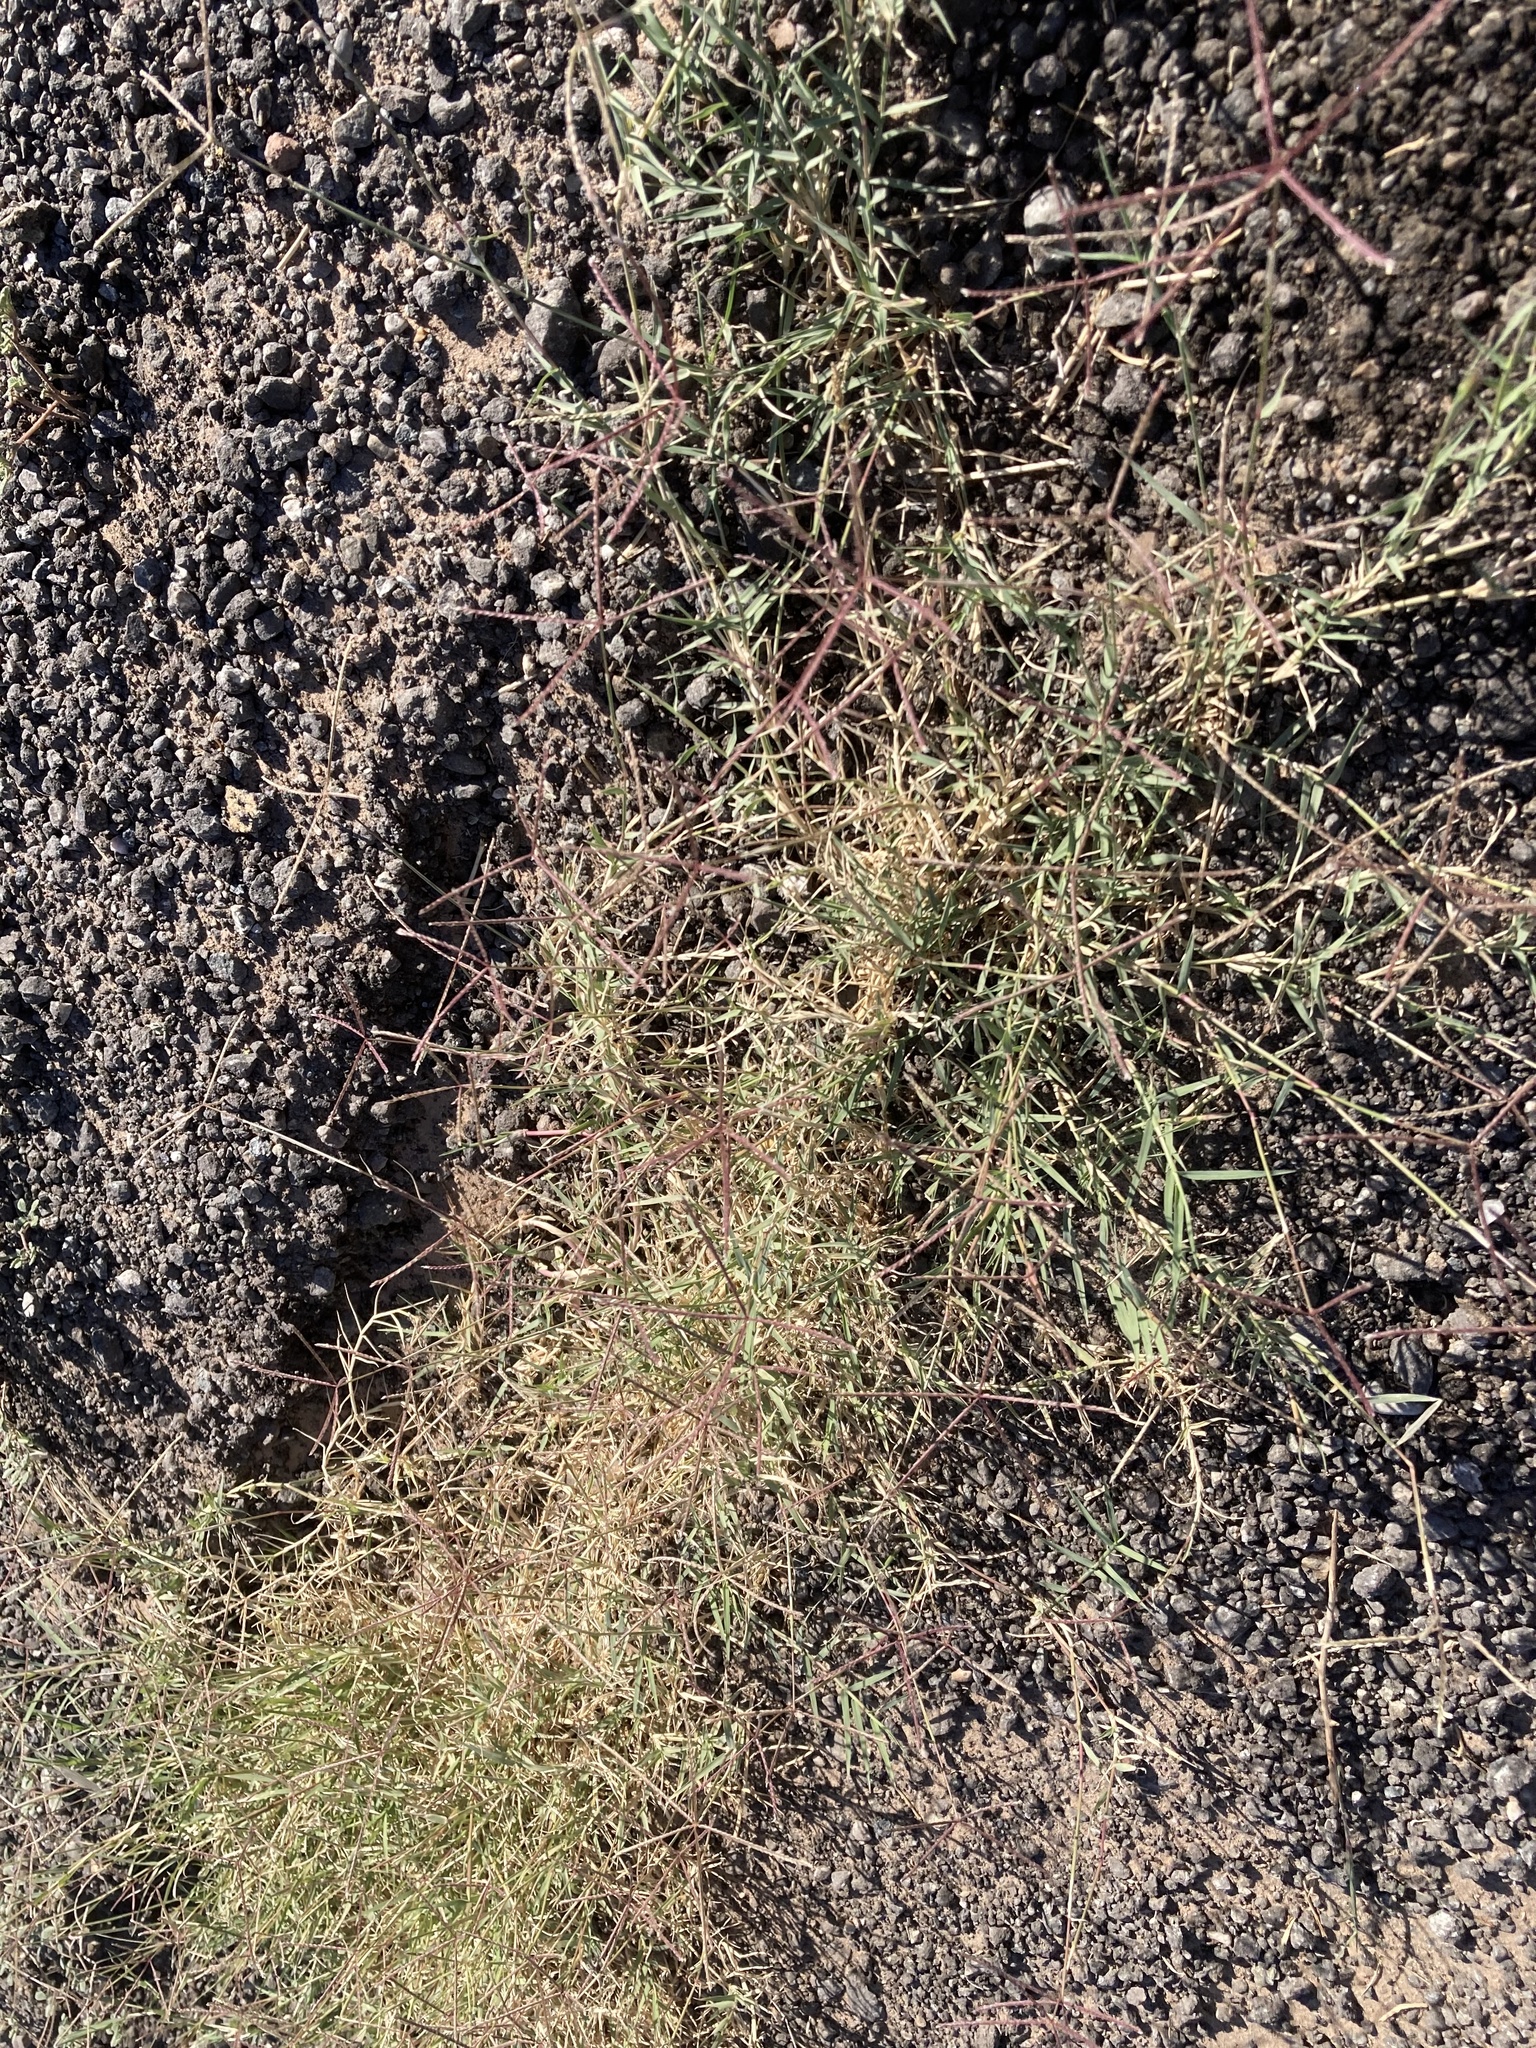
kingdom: Plantae
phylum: Tracheophyta
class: Liliopsida
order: Poales
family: Poaceae
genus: Cynodon
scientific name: Cynodon dactylon
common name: Bermuda grass
